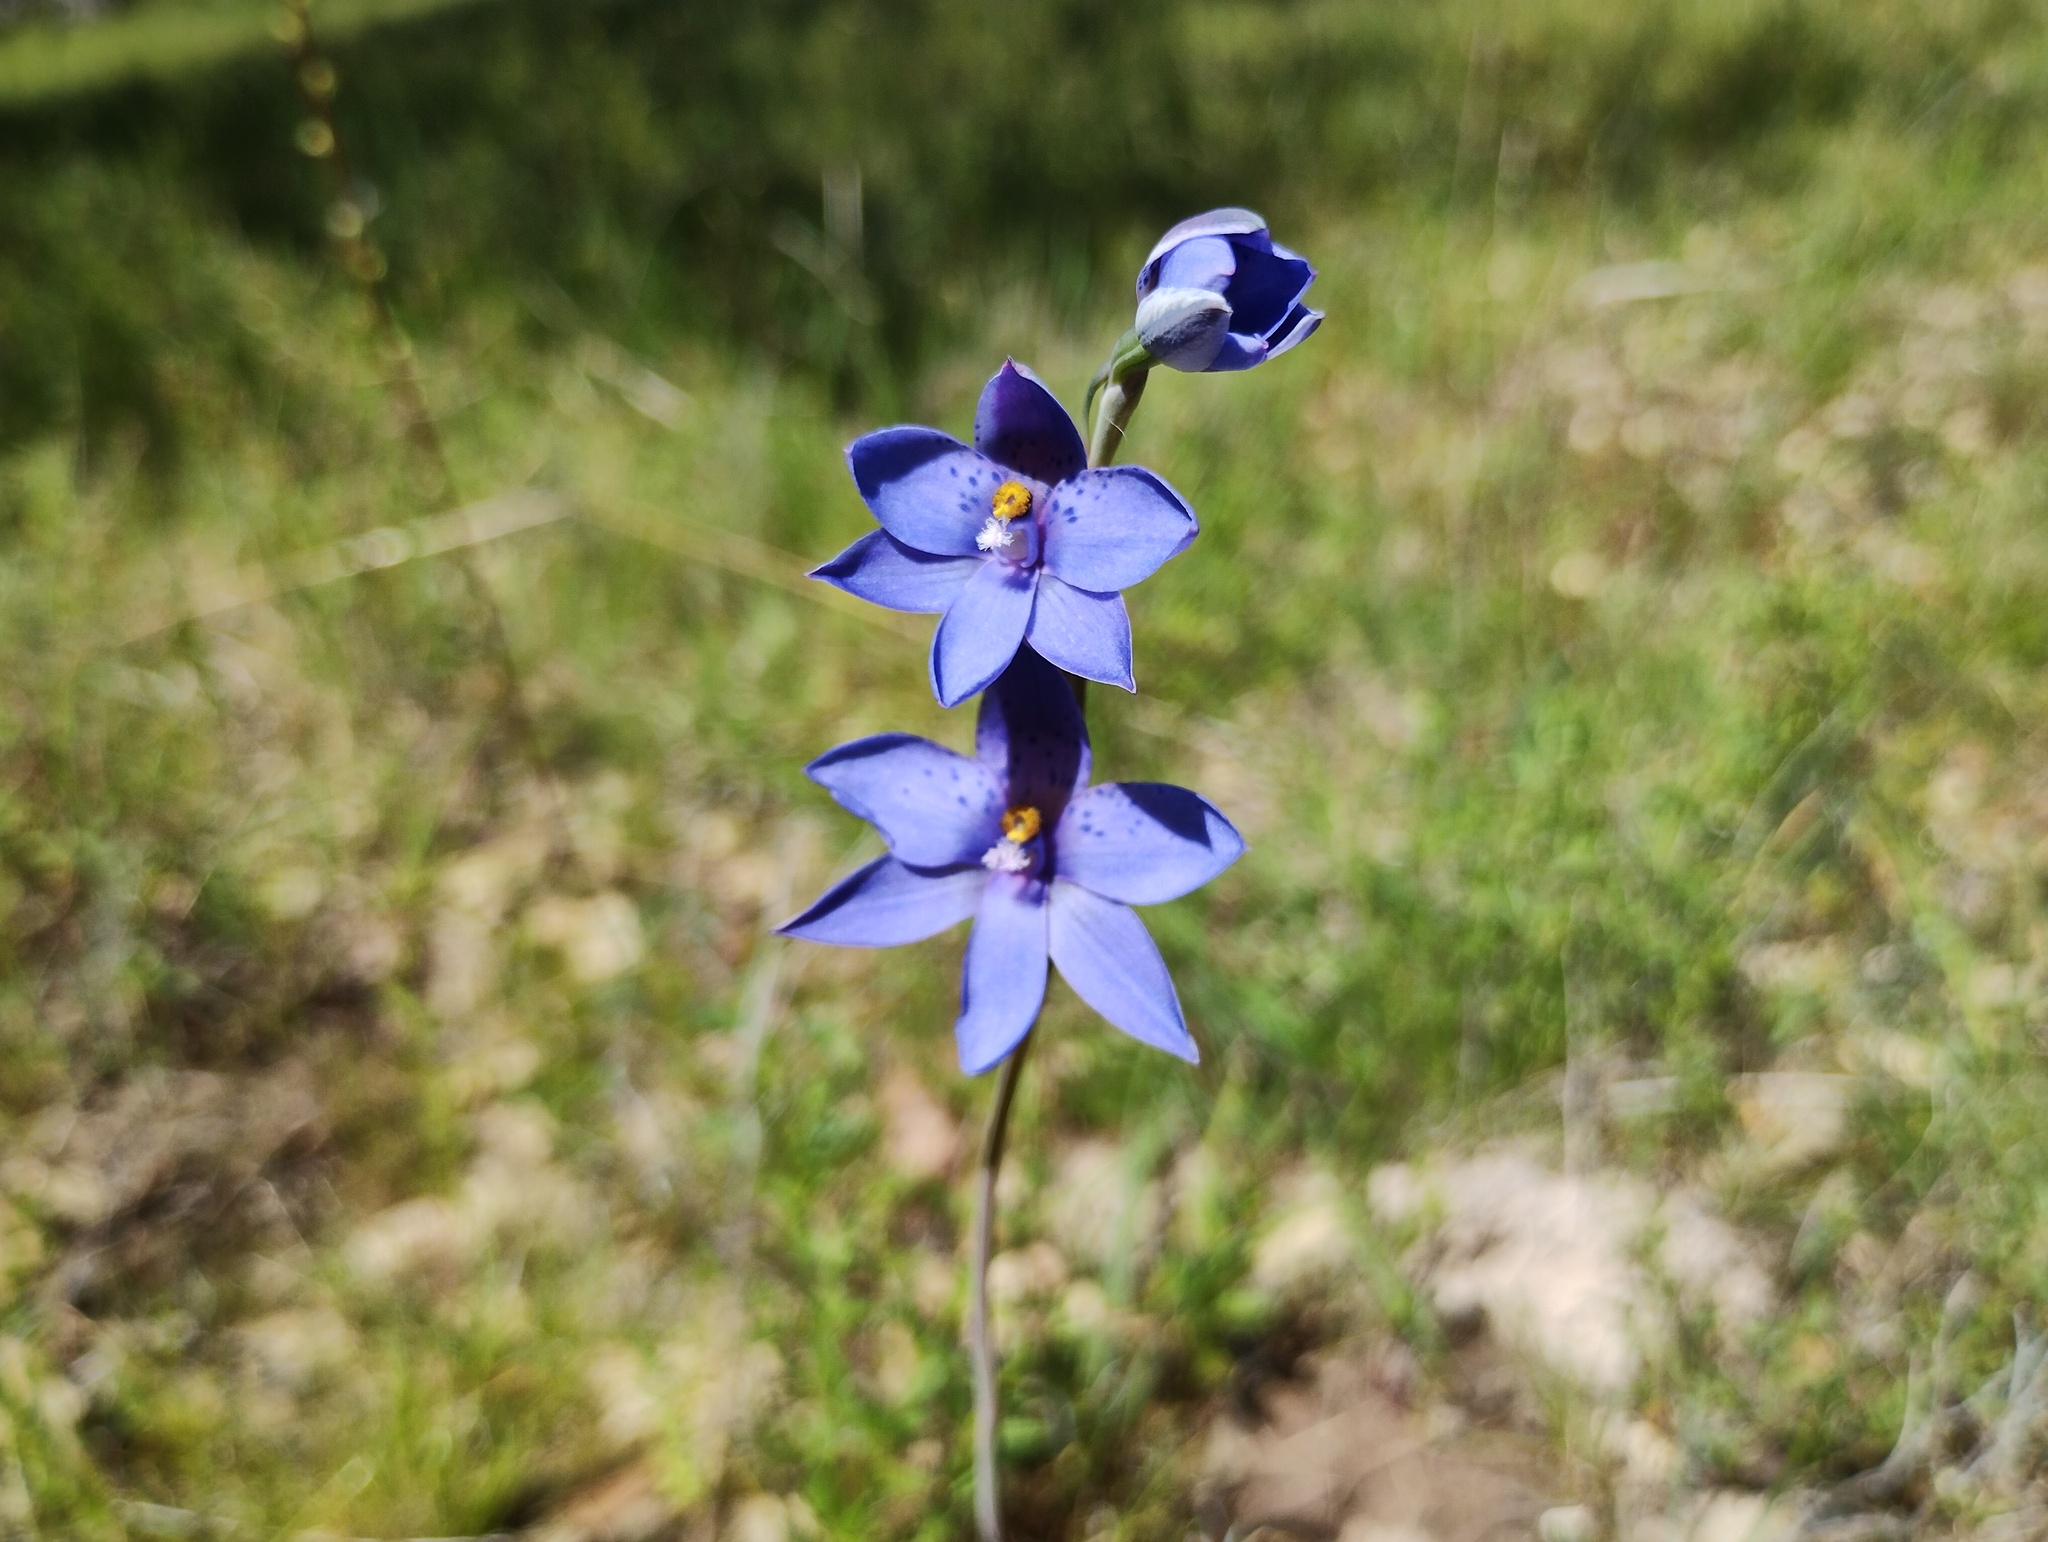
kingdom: Plantae
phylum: Tracheophyta
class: Liliopsida
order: Asparagales
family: Orchidaceae
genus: Thelymitra
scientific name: Thelymitra ixioides
